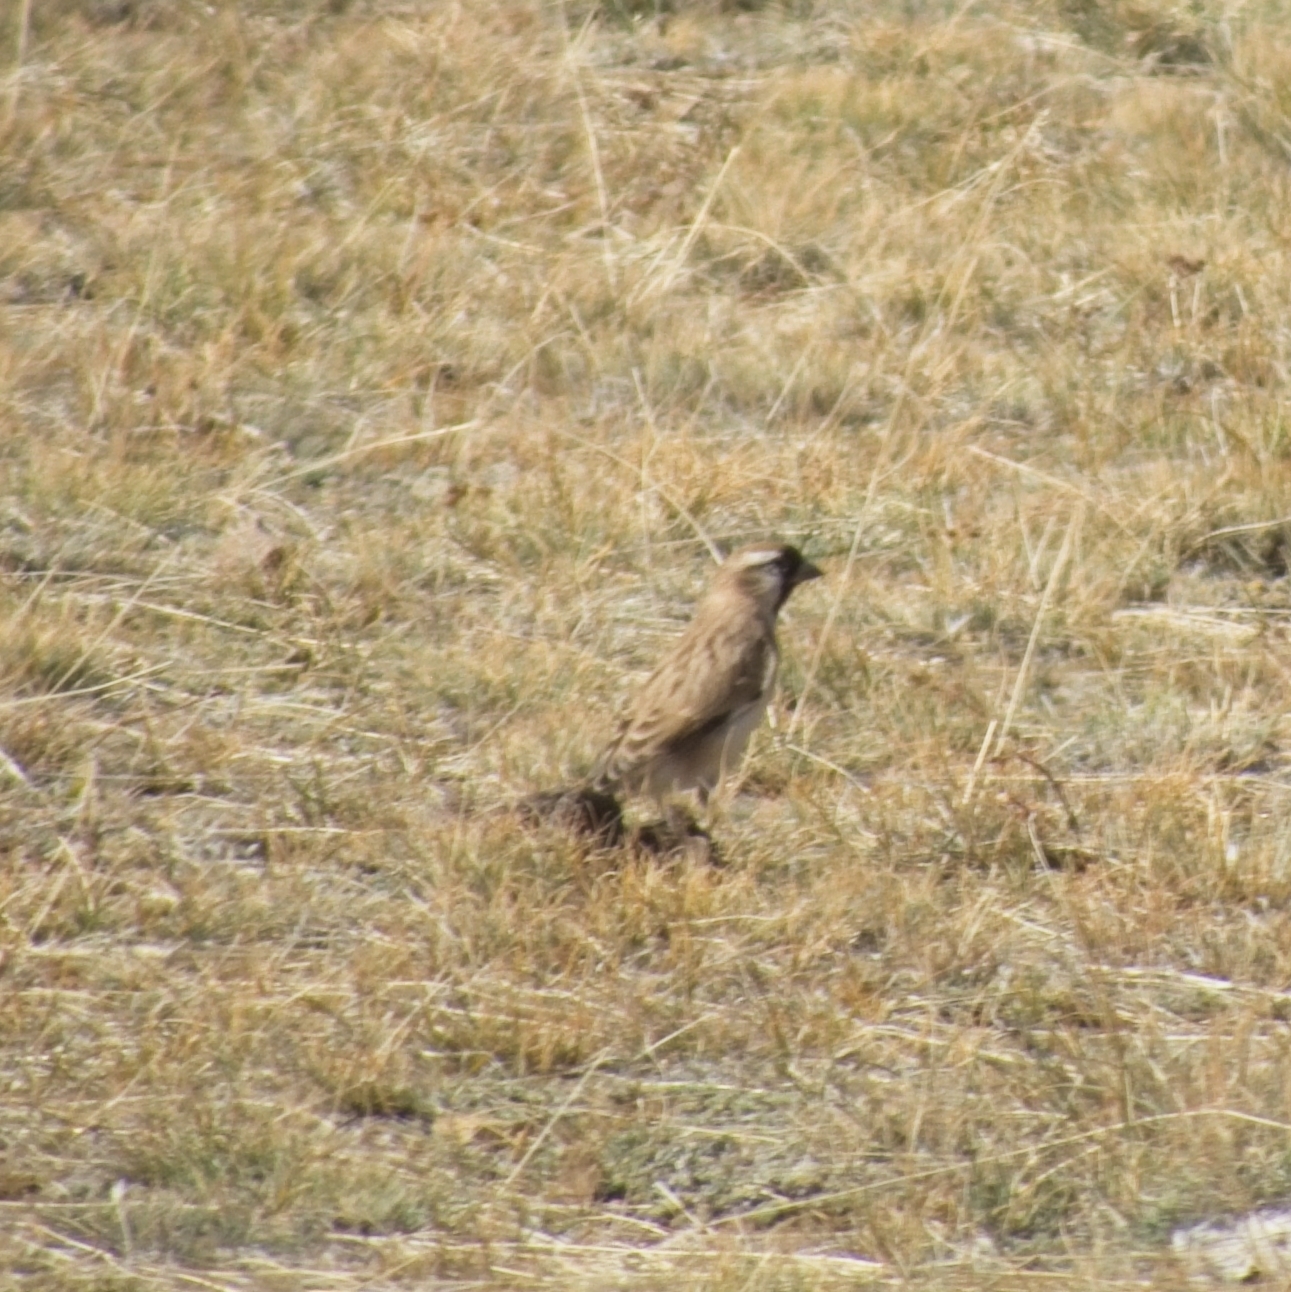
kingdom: Animalia
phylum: Chordata
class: Aves
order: Passeriformes
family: Passeridae
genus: Pyrgilauda
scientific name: Pyrgilauda davidiana
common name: Pere david's snowfinch
